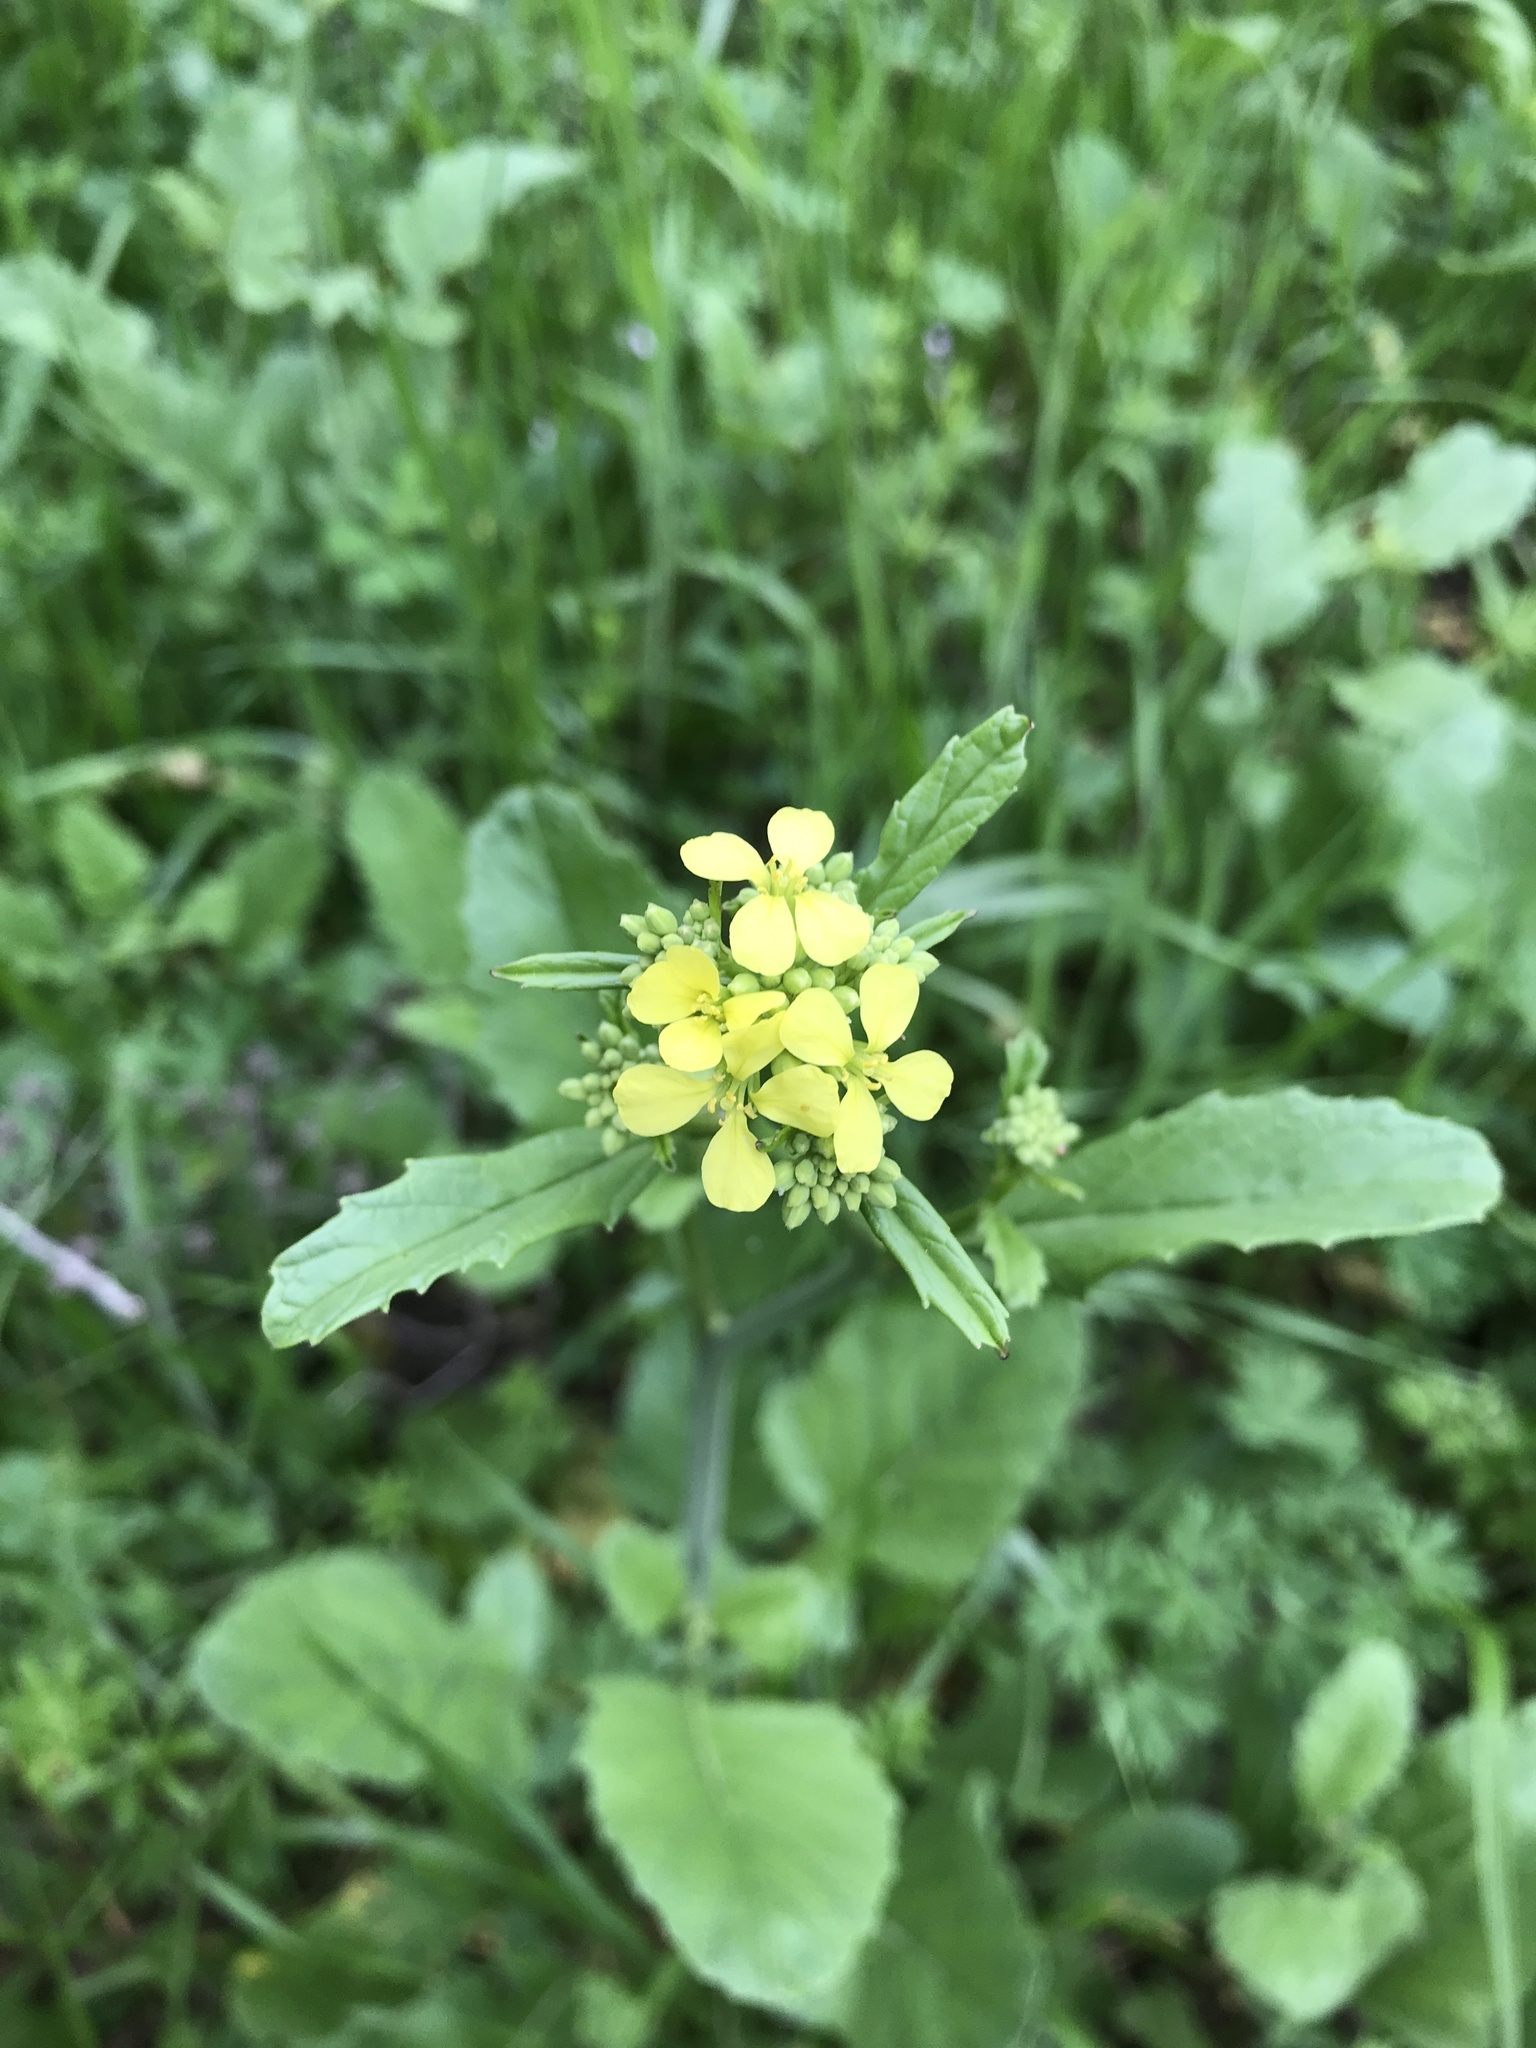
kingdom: Plantae
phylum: Tracheophyta
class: Magnoliopsida
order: Brassicales
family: Brassicaceae
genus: Rapistrum
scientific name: Rapistrum rugosum
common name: Annual bastardcabbage
